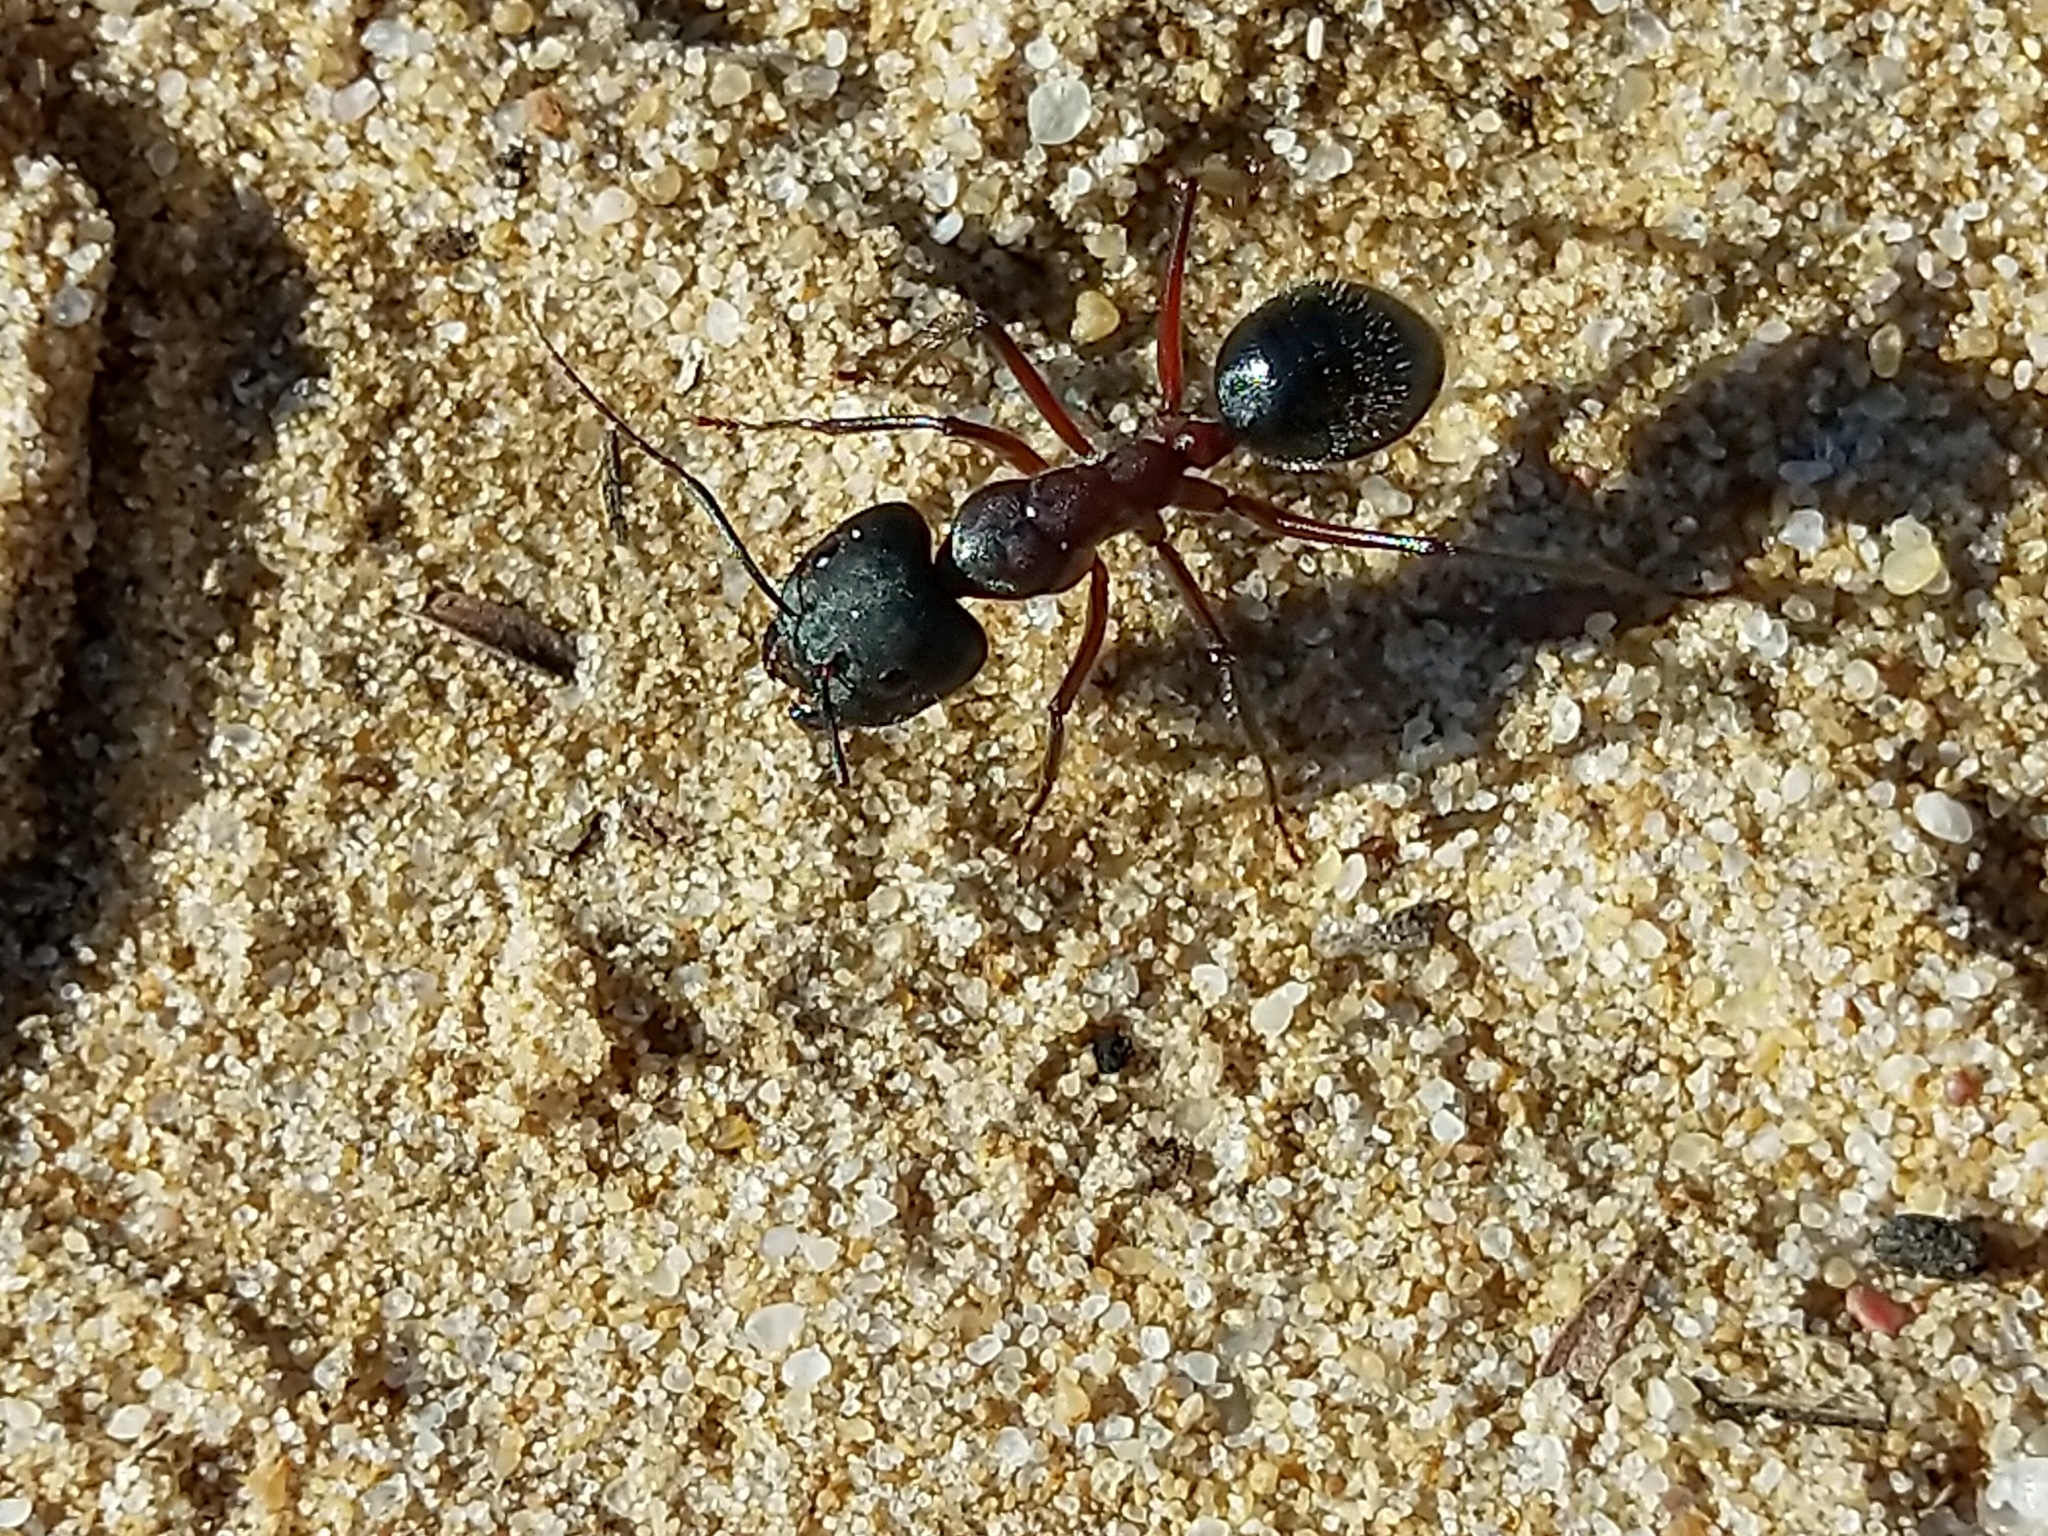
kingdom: Animalia
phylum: Arthropoda
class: Insecta
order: Hymenoptera
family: Formicidae
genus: Camponotus
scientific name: Camponotus intrepidus
